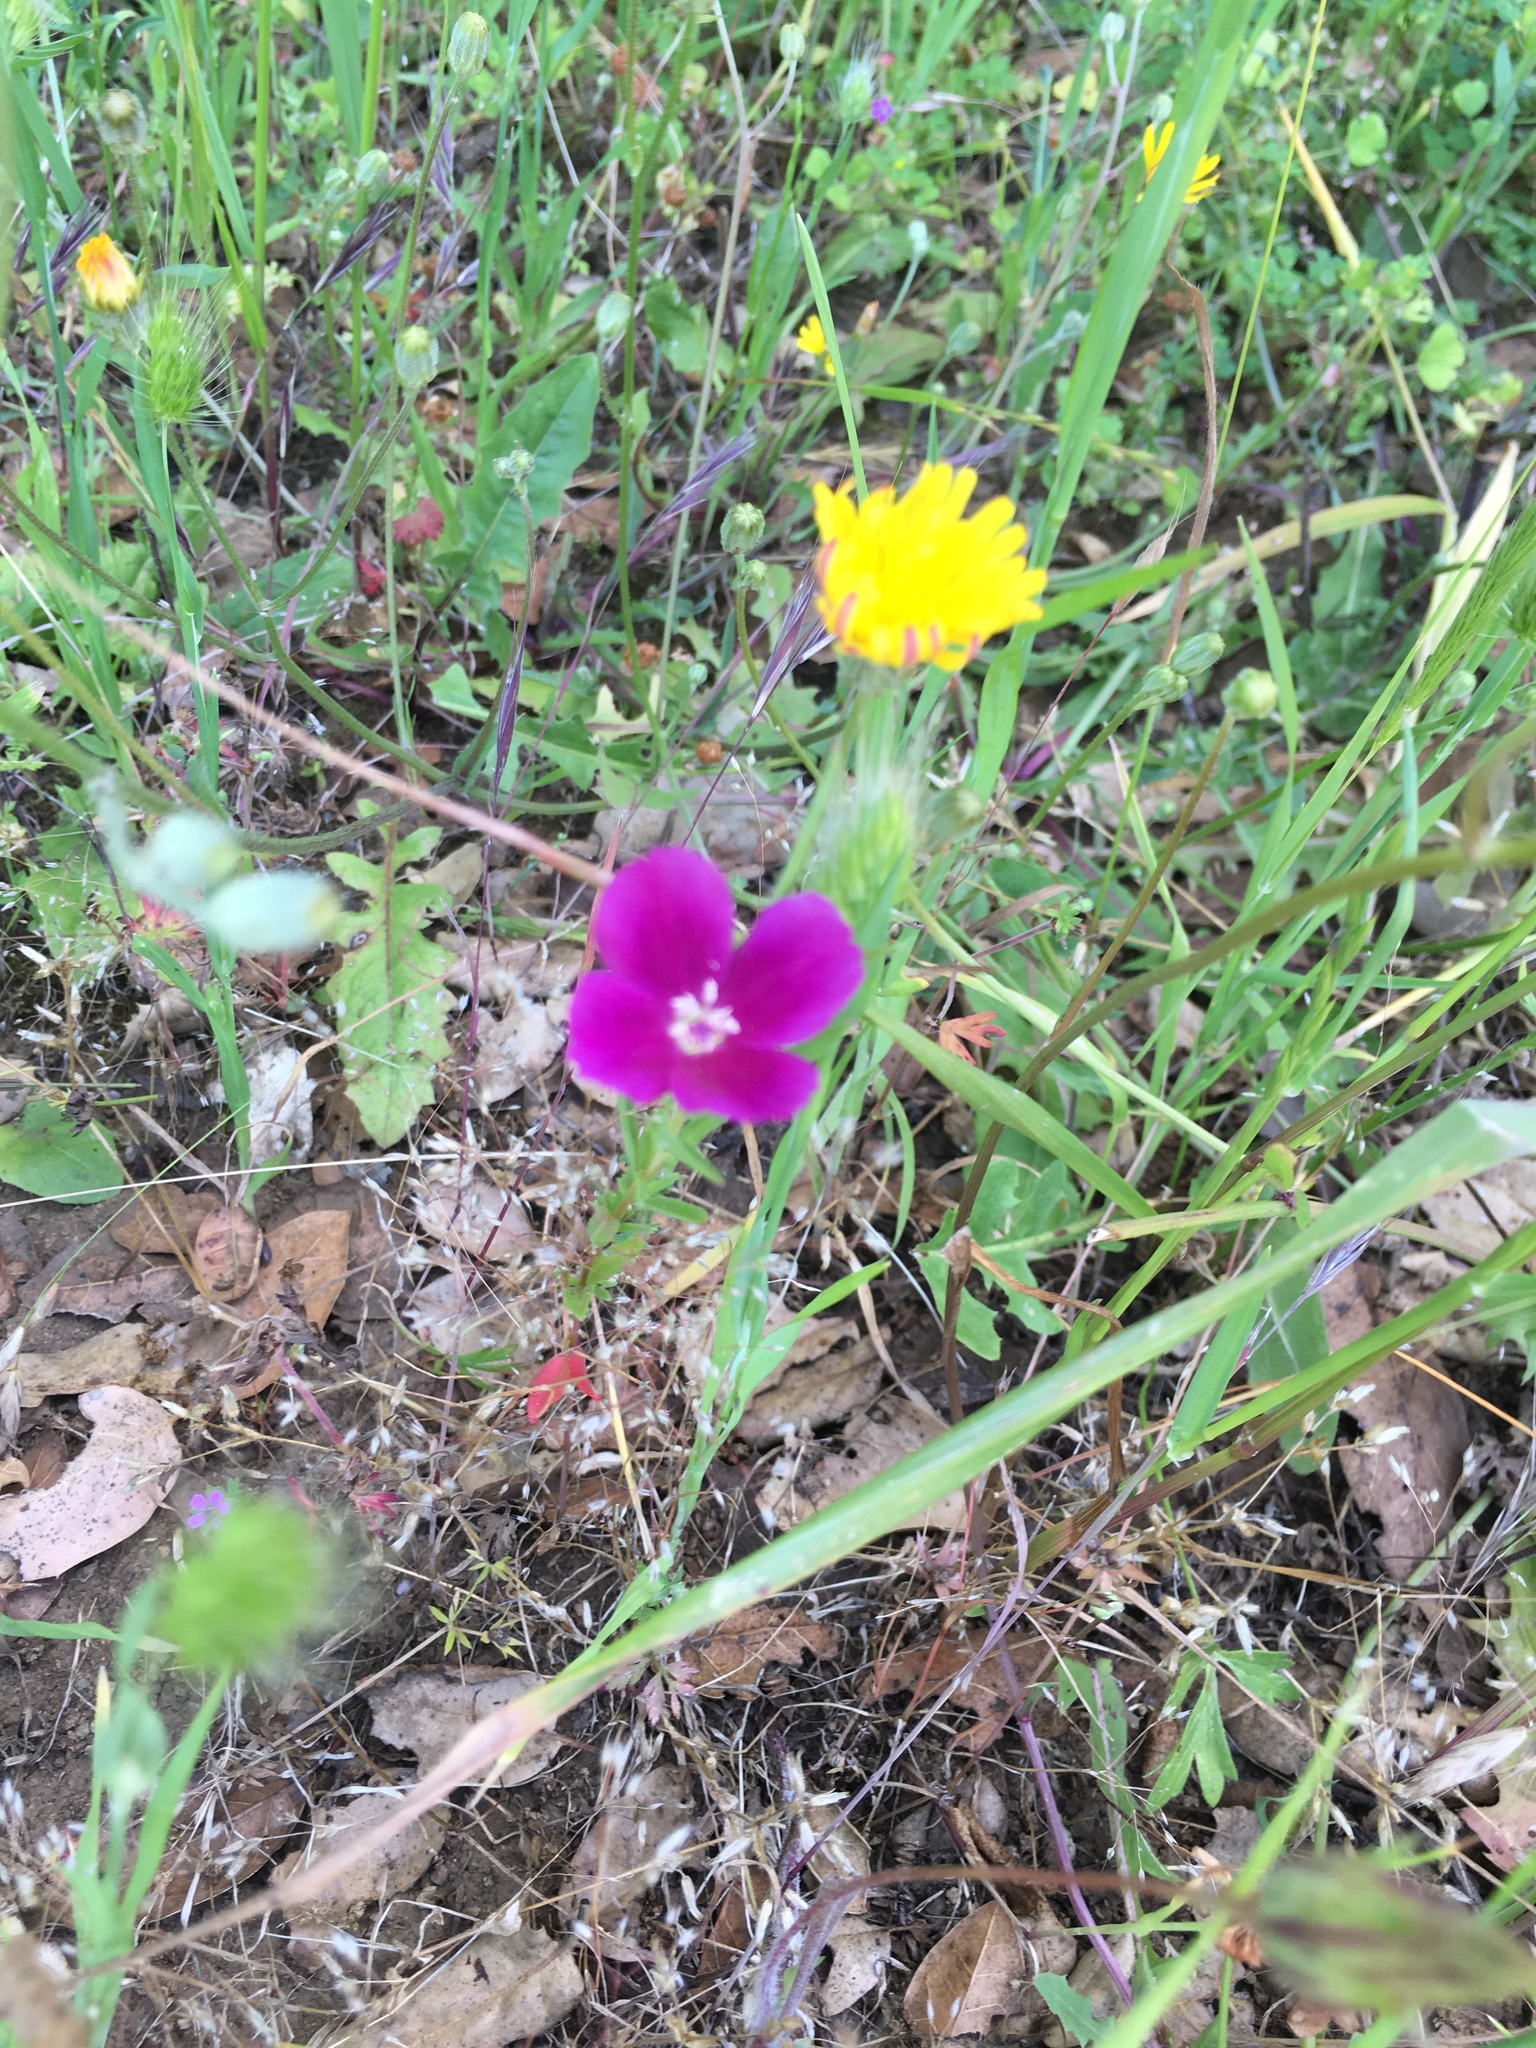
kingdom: Plantae
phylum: Tracheophyta
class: Magnoliopsida
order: Myrtales
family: Onagraceae
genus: Clarkia
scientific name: Clarkia purpurea
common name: Purple clarkia
